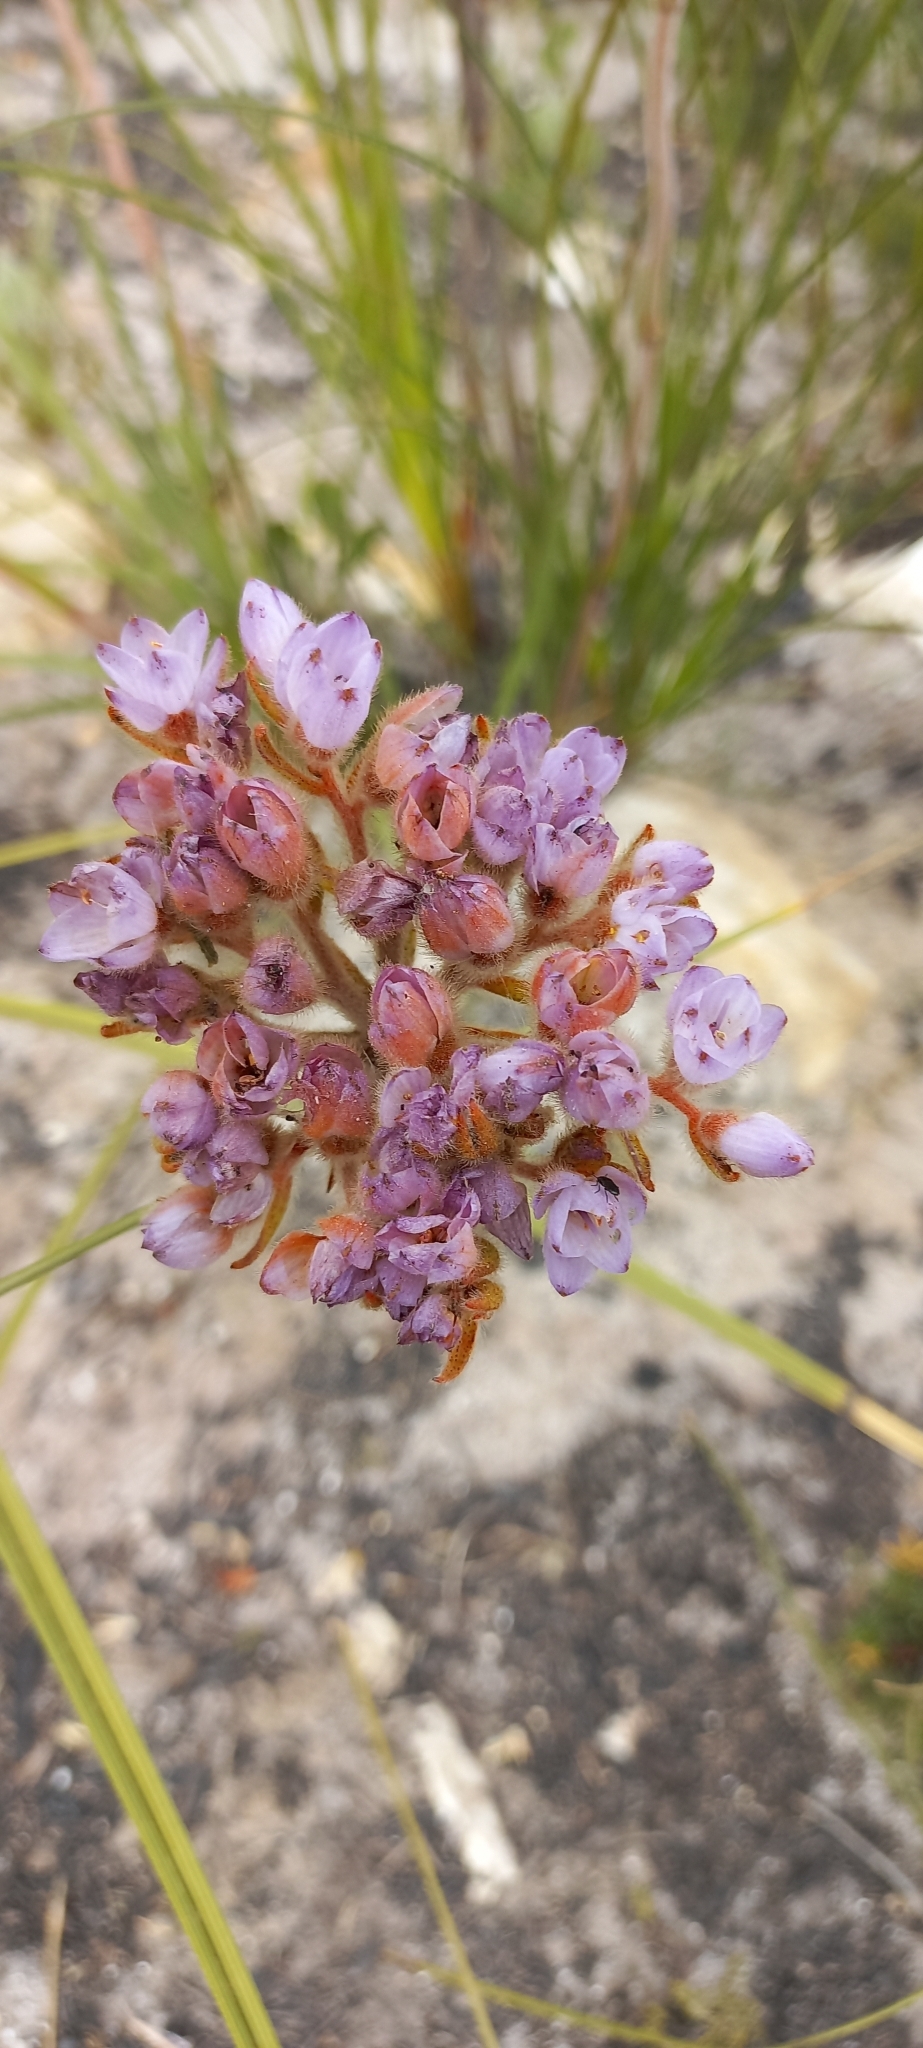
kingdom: Plantae
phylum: Tracheophyta
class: Liliopsida
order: Commelinales
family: Haemodoraceae
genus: Dilatris
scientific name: Dilatris pillansii
